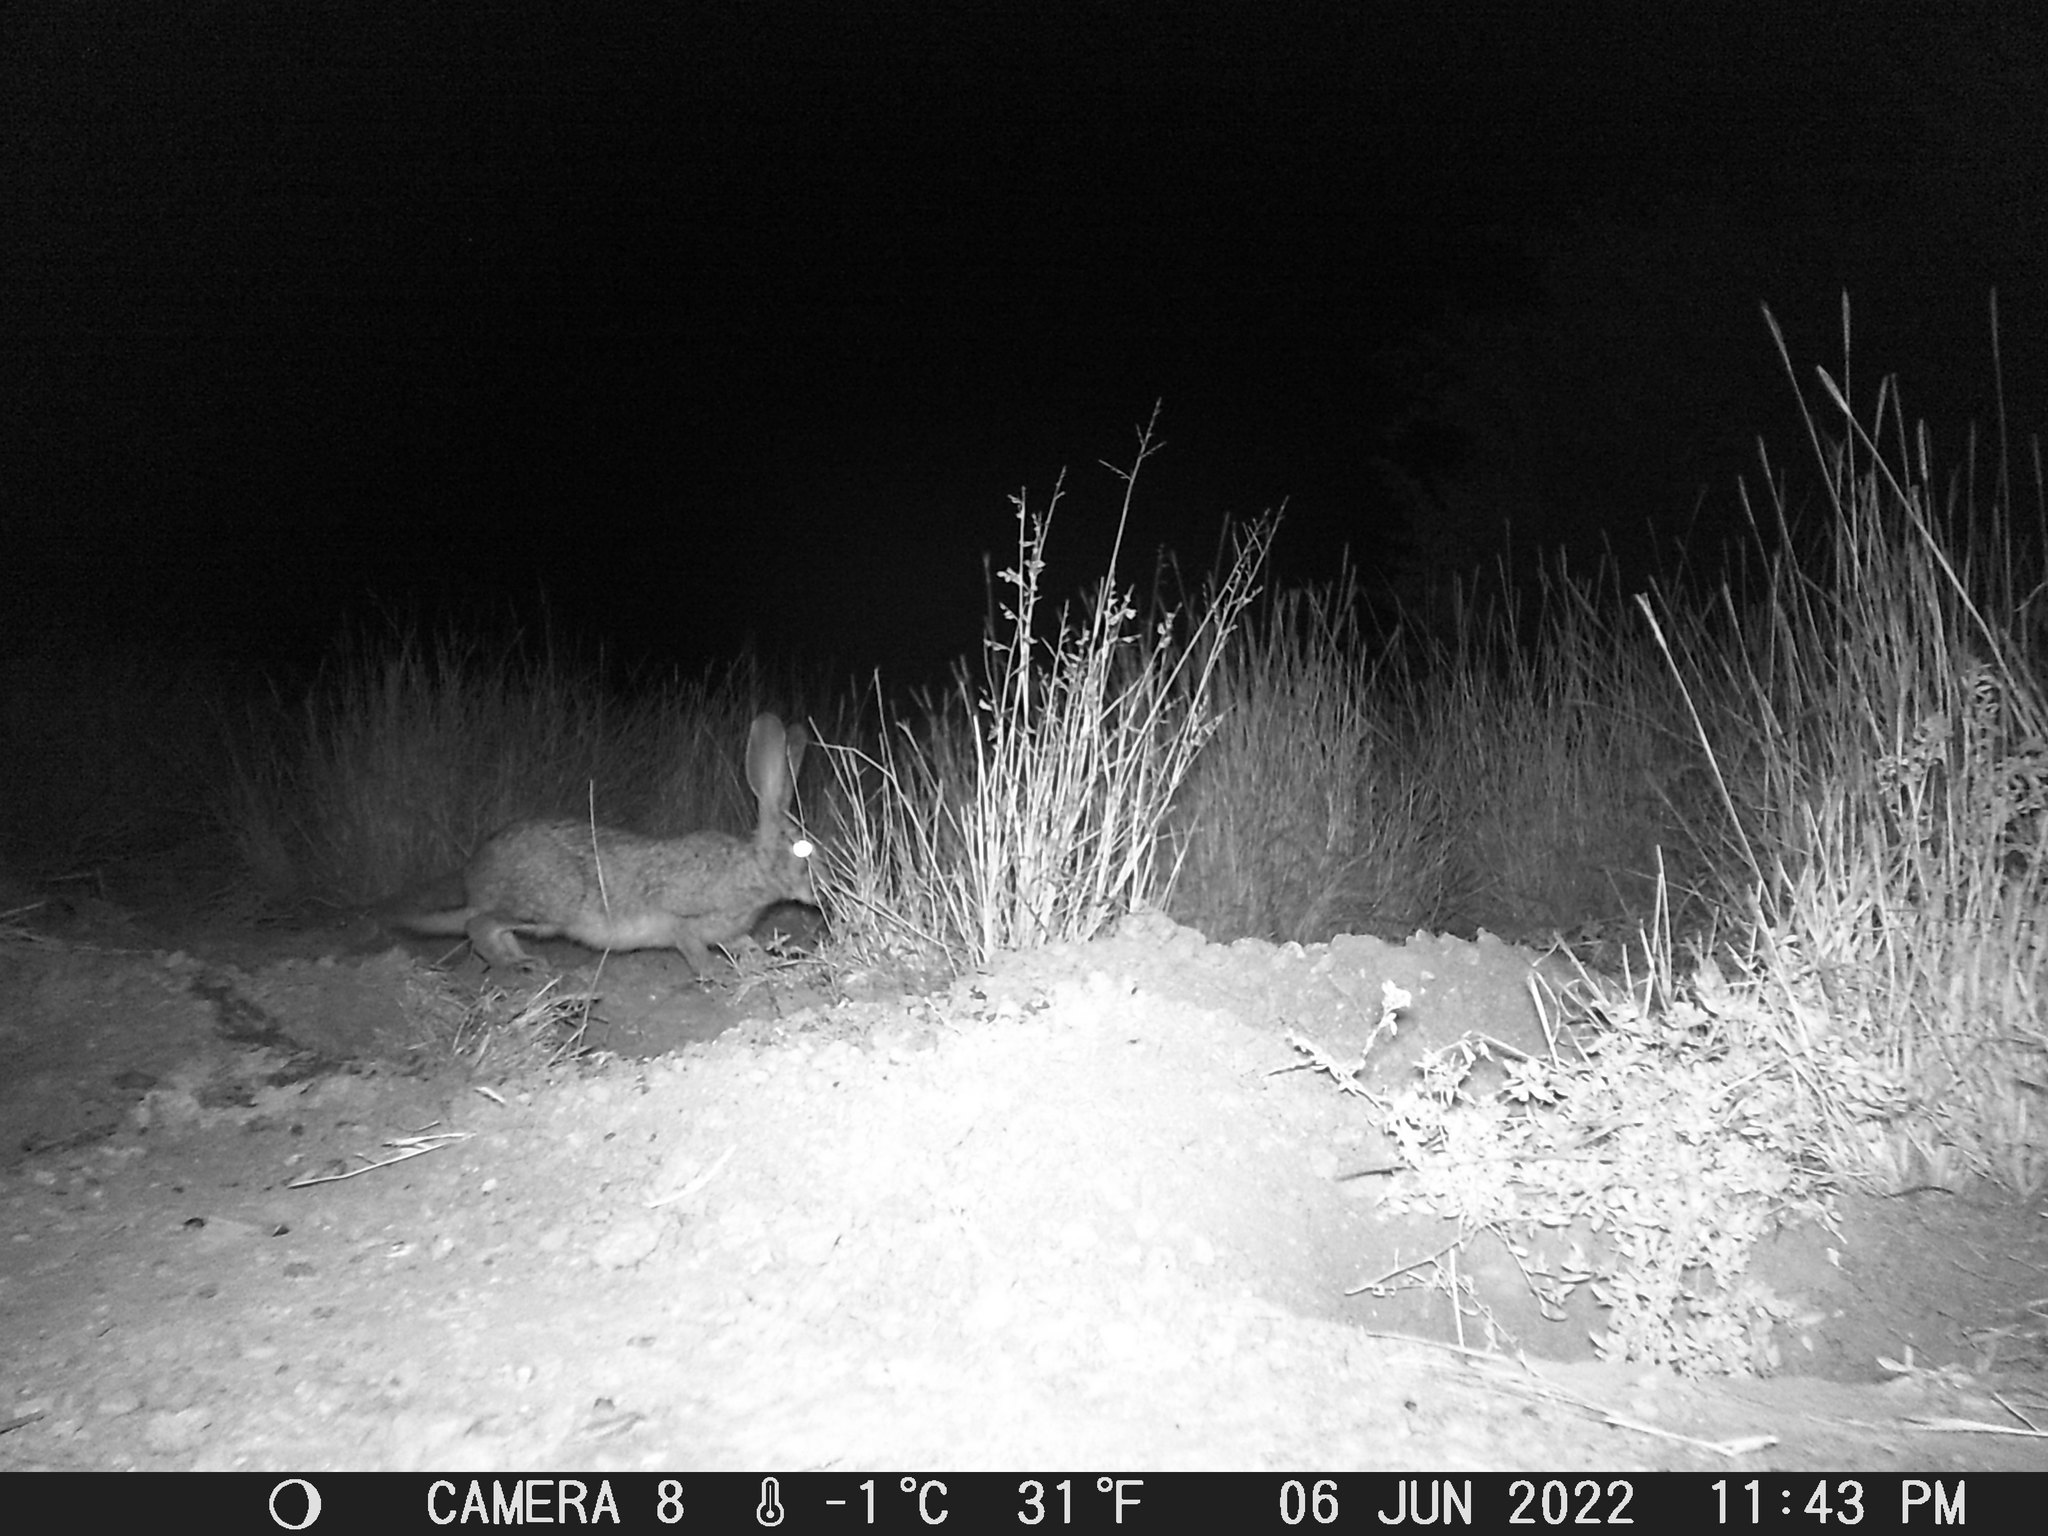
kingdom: Animalia
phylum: Chordata
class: Mammalia
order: Lagomorpha
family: Leporidae
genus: Lepus
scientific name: Lepus saxatilis
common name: Scrub hare
